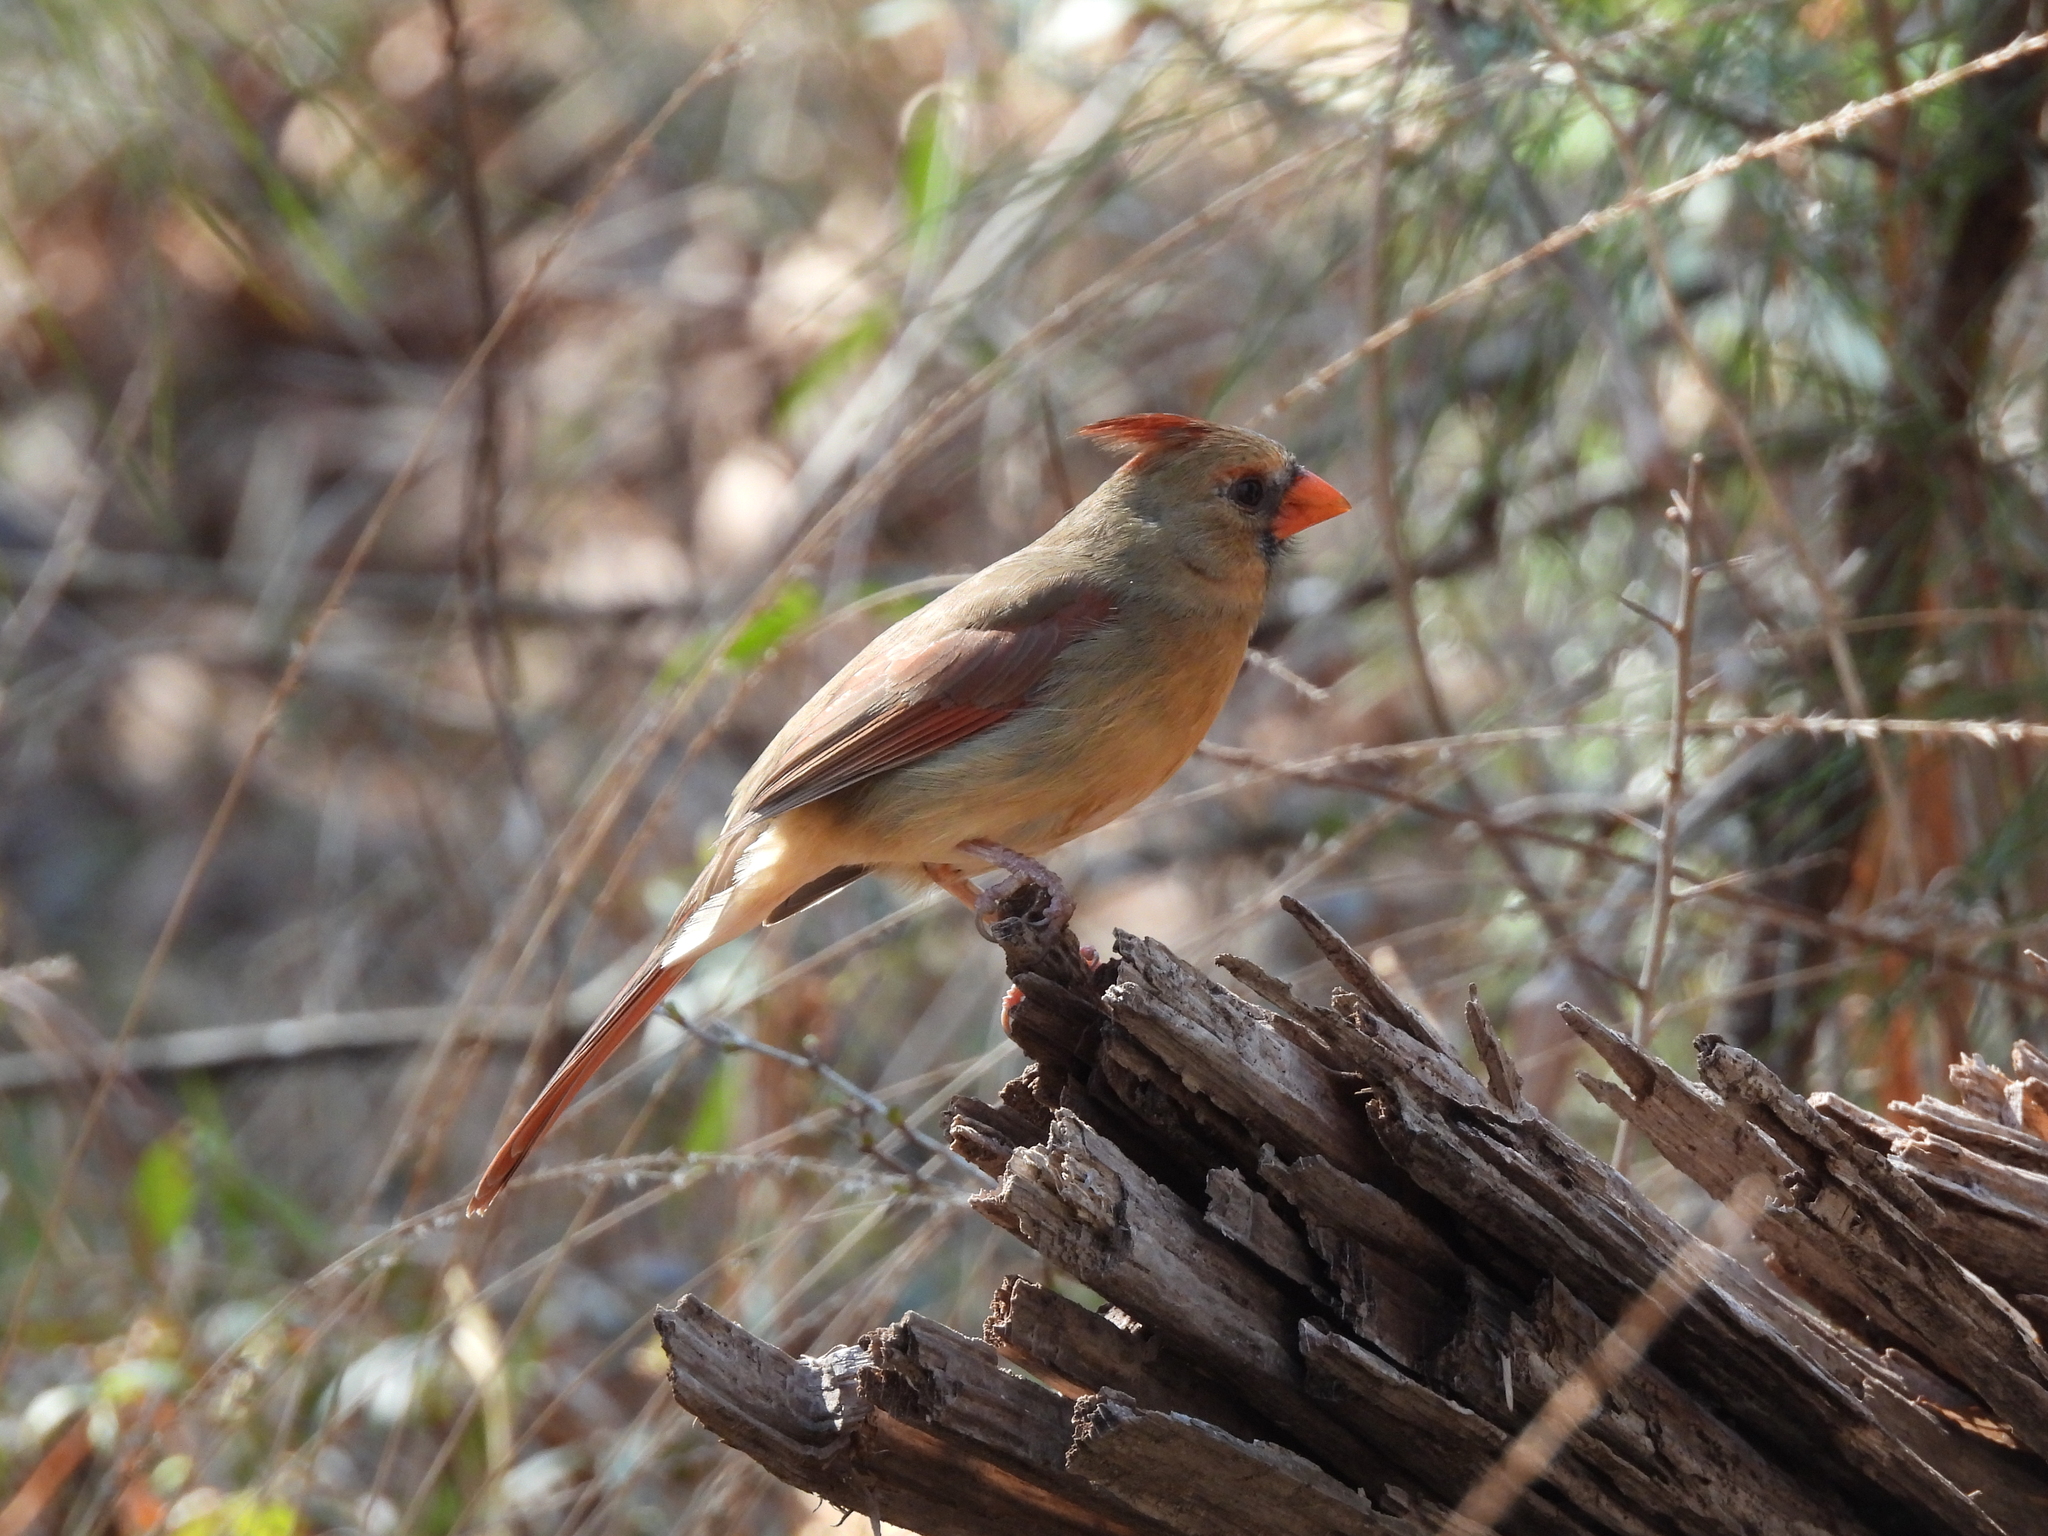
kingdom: Animalia
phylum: Chordata
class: Aves
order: Passeriformes
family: Cardinalidae
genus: Cardinalis
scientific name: Cardinalis cardinalis
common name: Northern cardinal
